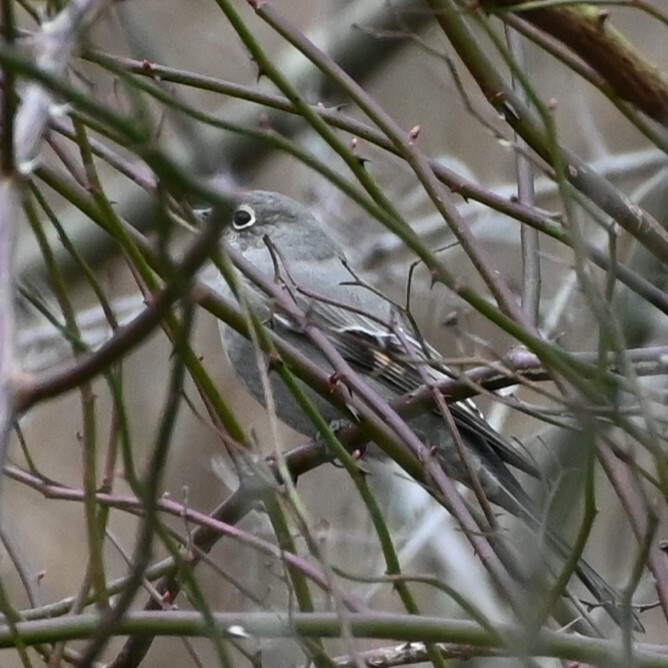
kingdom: Animalia
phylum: Chordata
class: Aves
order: Passeriformes
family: Turdidae
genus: Myadestes
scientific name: Myadestes townsendi
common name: Townsend's solitaire
